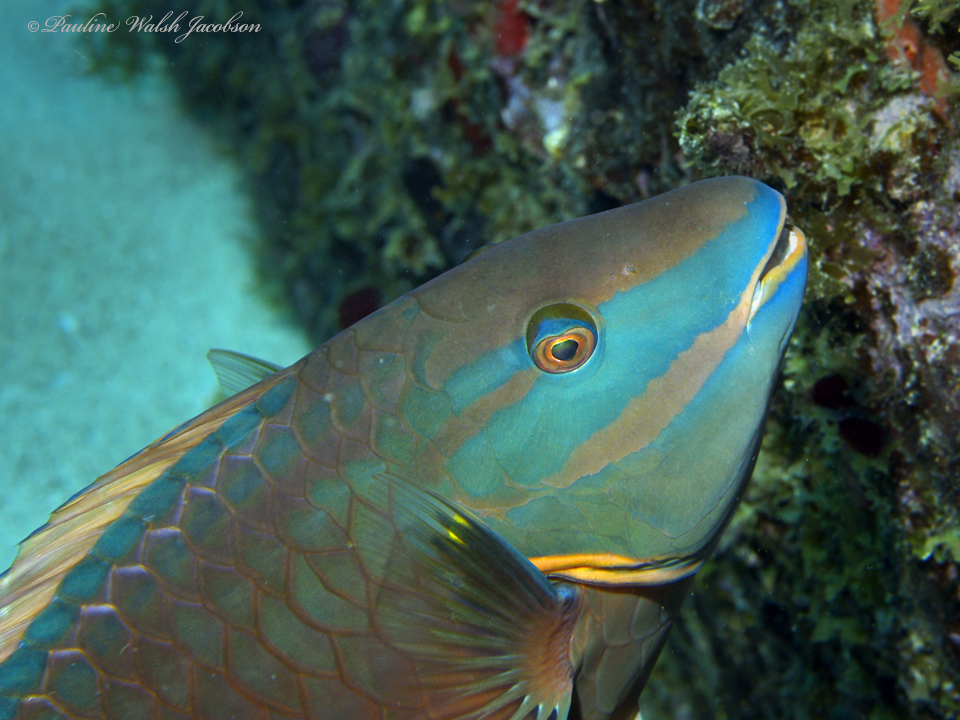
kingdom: Animalia
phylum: Chordata
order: Perciformes
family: Scaridae
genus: Sparisoma
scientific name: Sparisoma viride
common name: Stoplight parrotfish
